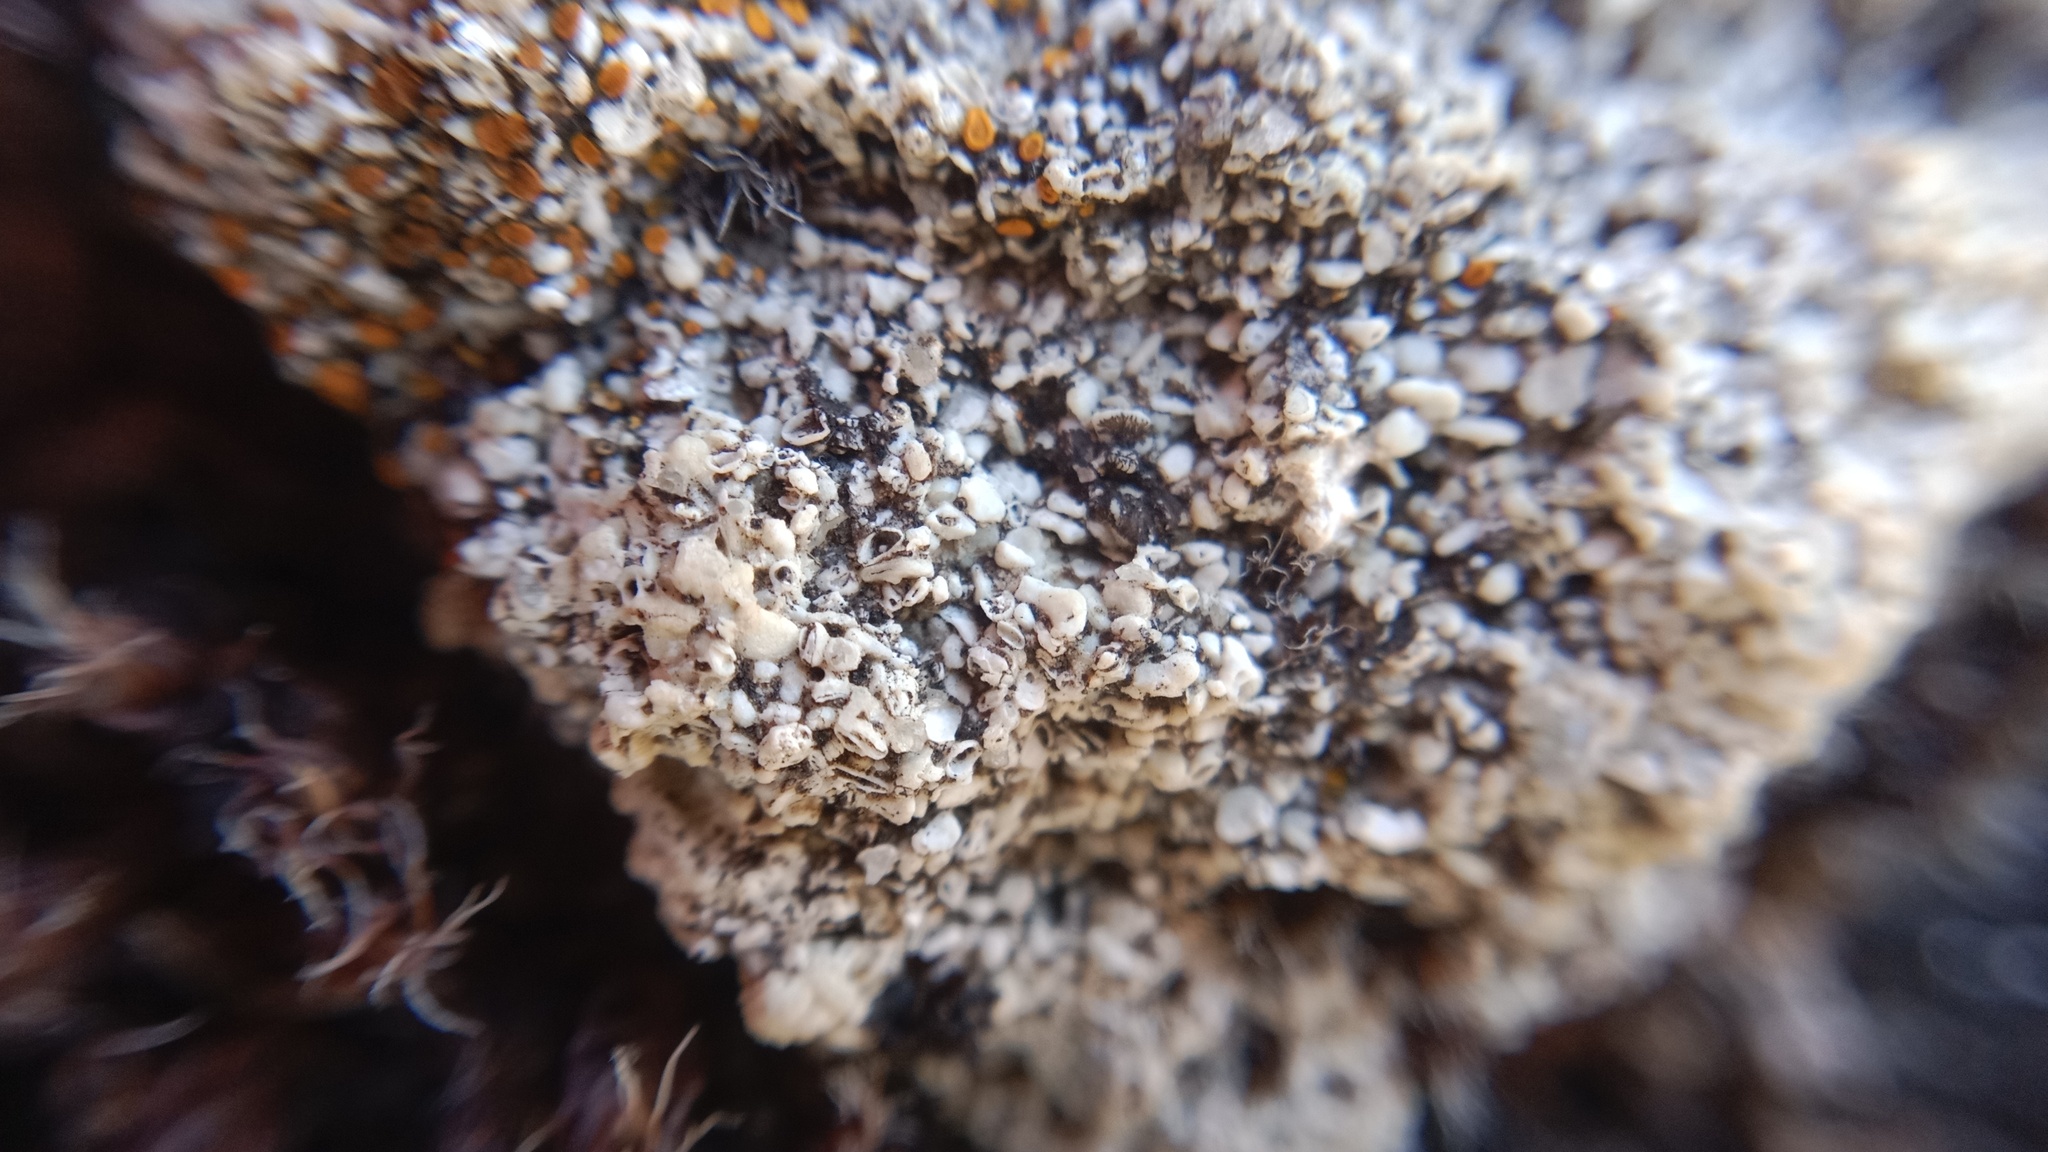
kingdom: Fungi
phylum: Ascomycota
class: Lecanoromycetes
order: Lecanorales
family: Lecanoraceae
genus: Protoparmeliopsis
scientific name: Protoparmeliopsis muralis
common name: Stonewall rim lichen
